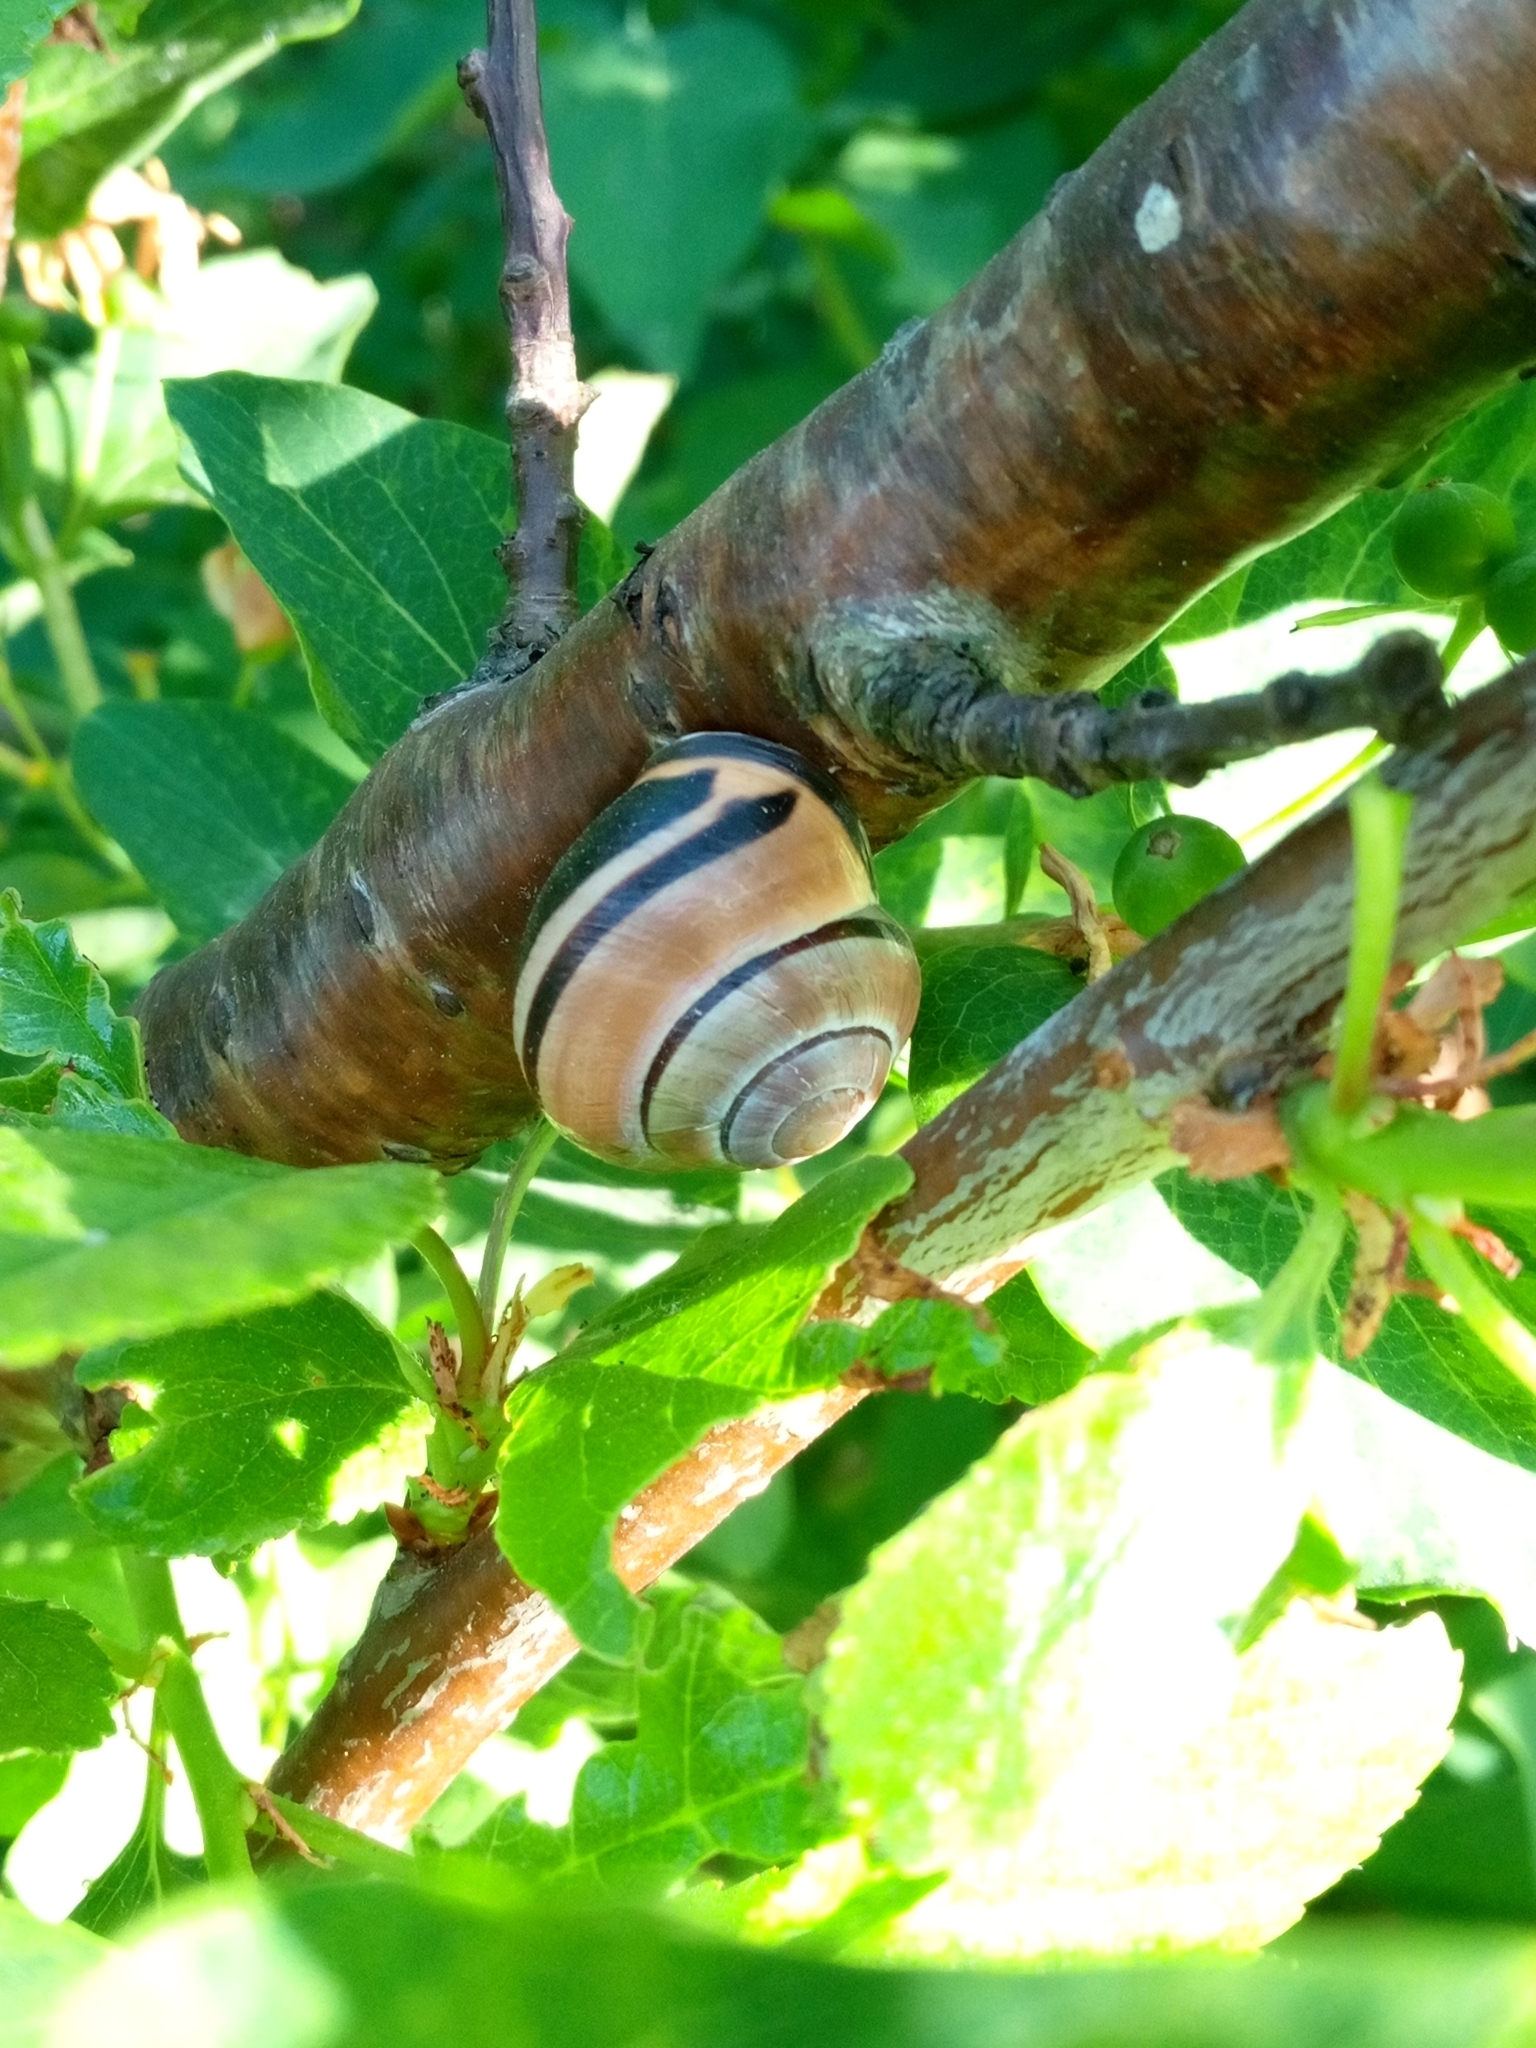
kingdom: Animalia
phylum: Mollusca
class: Gastropoda
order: Stylommatophora
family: Helicidae
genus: Cepaea
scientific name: Cepaea nemoralis
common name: Grovesnail
